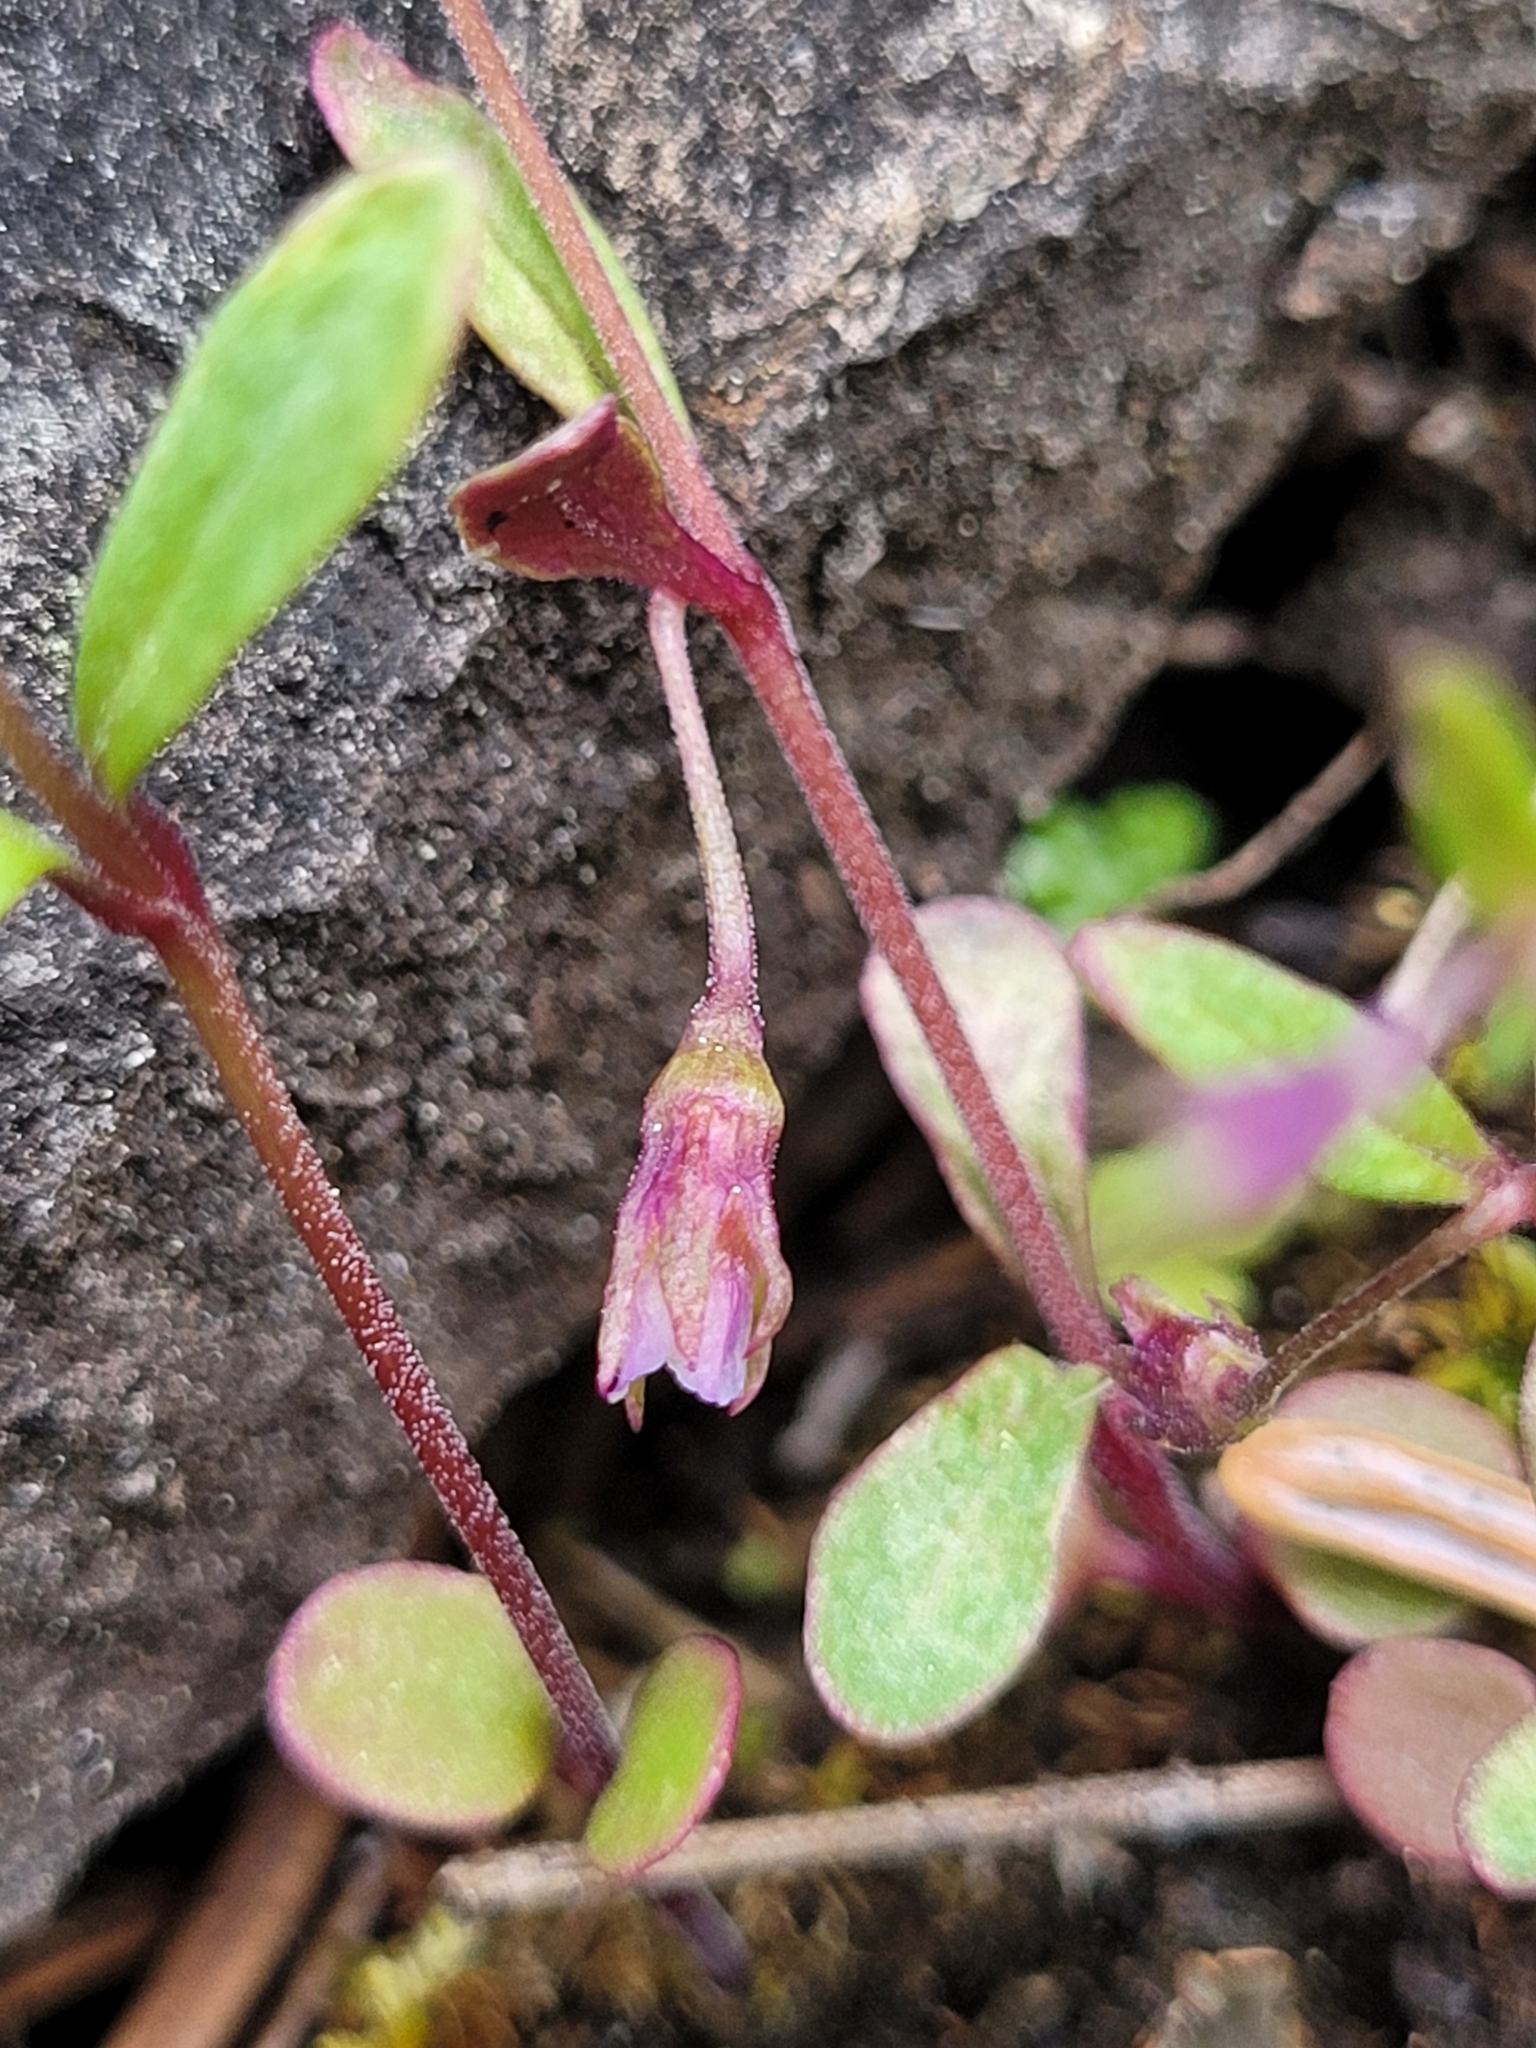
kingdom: Plantae
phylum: Tracheophyta
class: Magnoliopsida
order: Lamiales
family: Plantaginaceae
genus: Collinsia
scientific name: Collinsia parviflora
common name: Blue-lips
